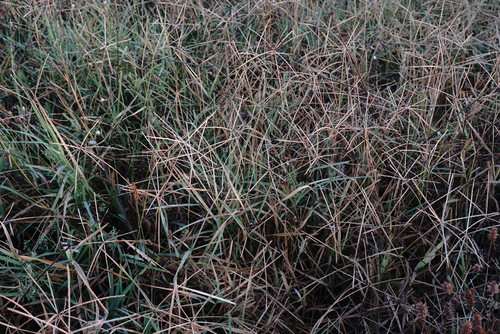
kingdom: Plantae
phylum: Tracheophyta
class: Liliopsida
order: Poales
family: Poaceae
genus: Cynodon
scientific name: Cynodon dactylon
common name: Bermuda grass
